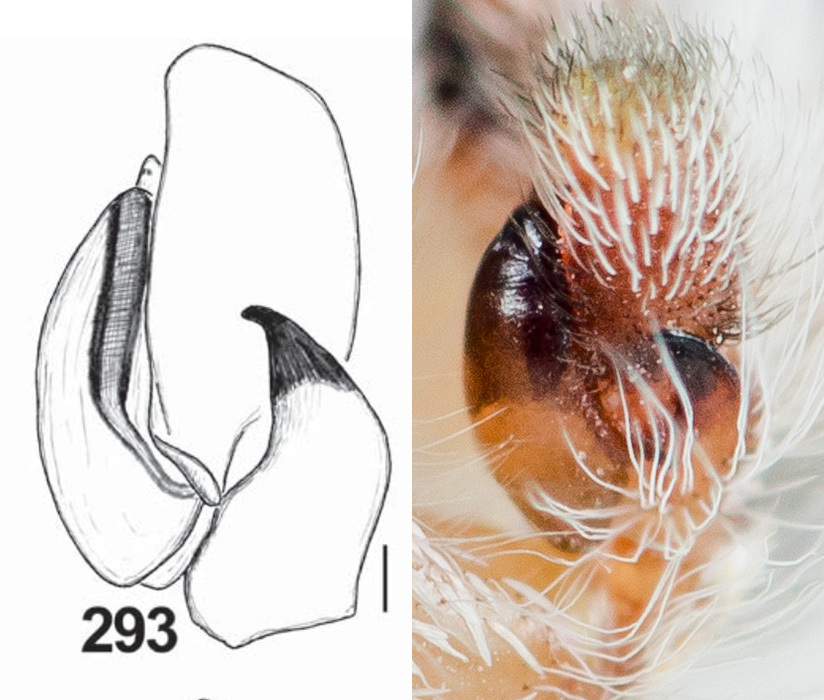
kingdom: Animalia
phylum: Arthropoda
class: Arachnida
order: Araneae
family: Salticidae
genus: Pseudomogrus
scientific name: Pseudomogrus zhilgaensis
